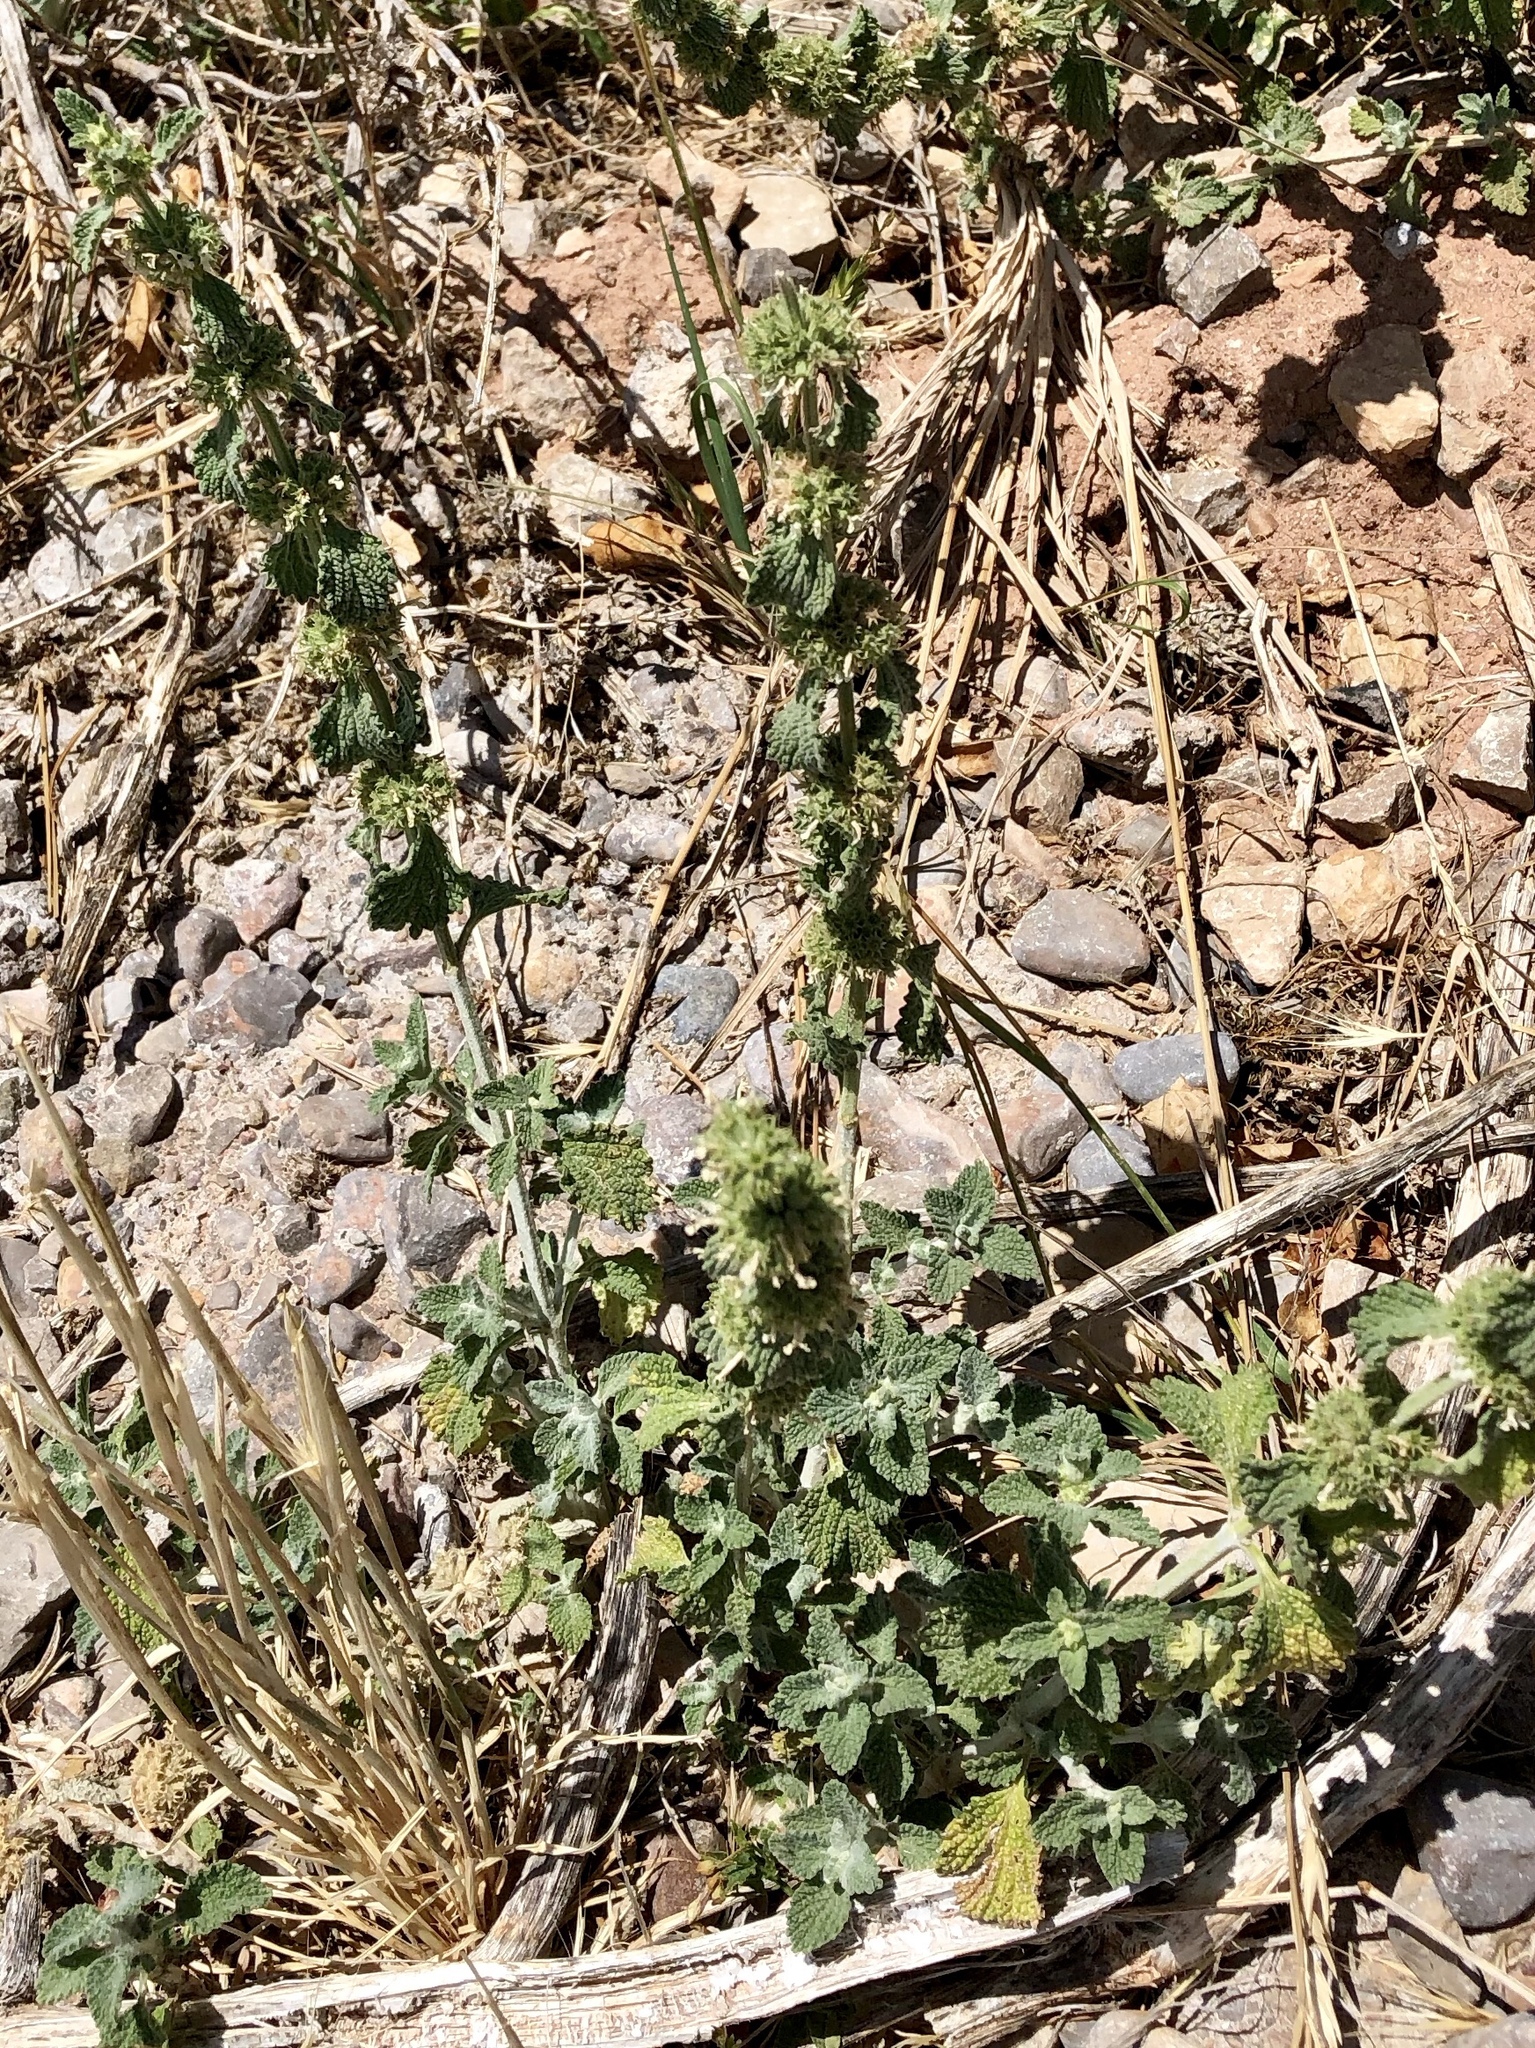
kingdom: Plantae
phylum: Tracheophyta
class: Magnoliopsida
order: Lamiales
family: Lamiaceae
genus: Marrubium
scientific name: Marrubium vulgare
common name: Horehound
